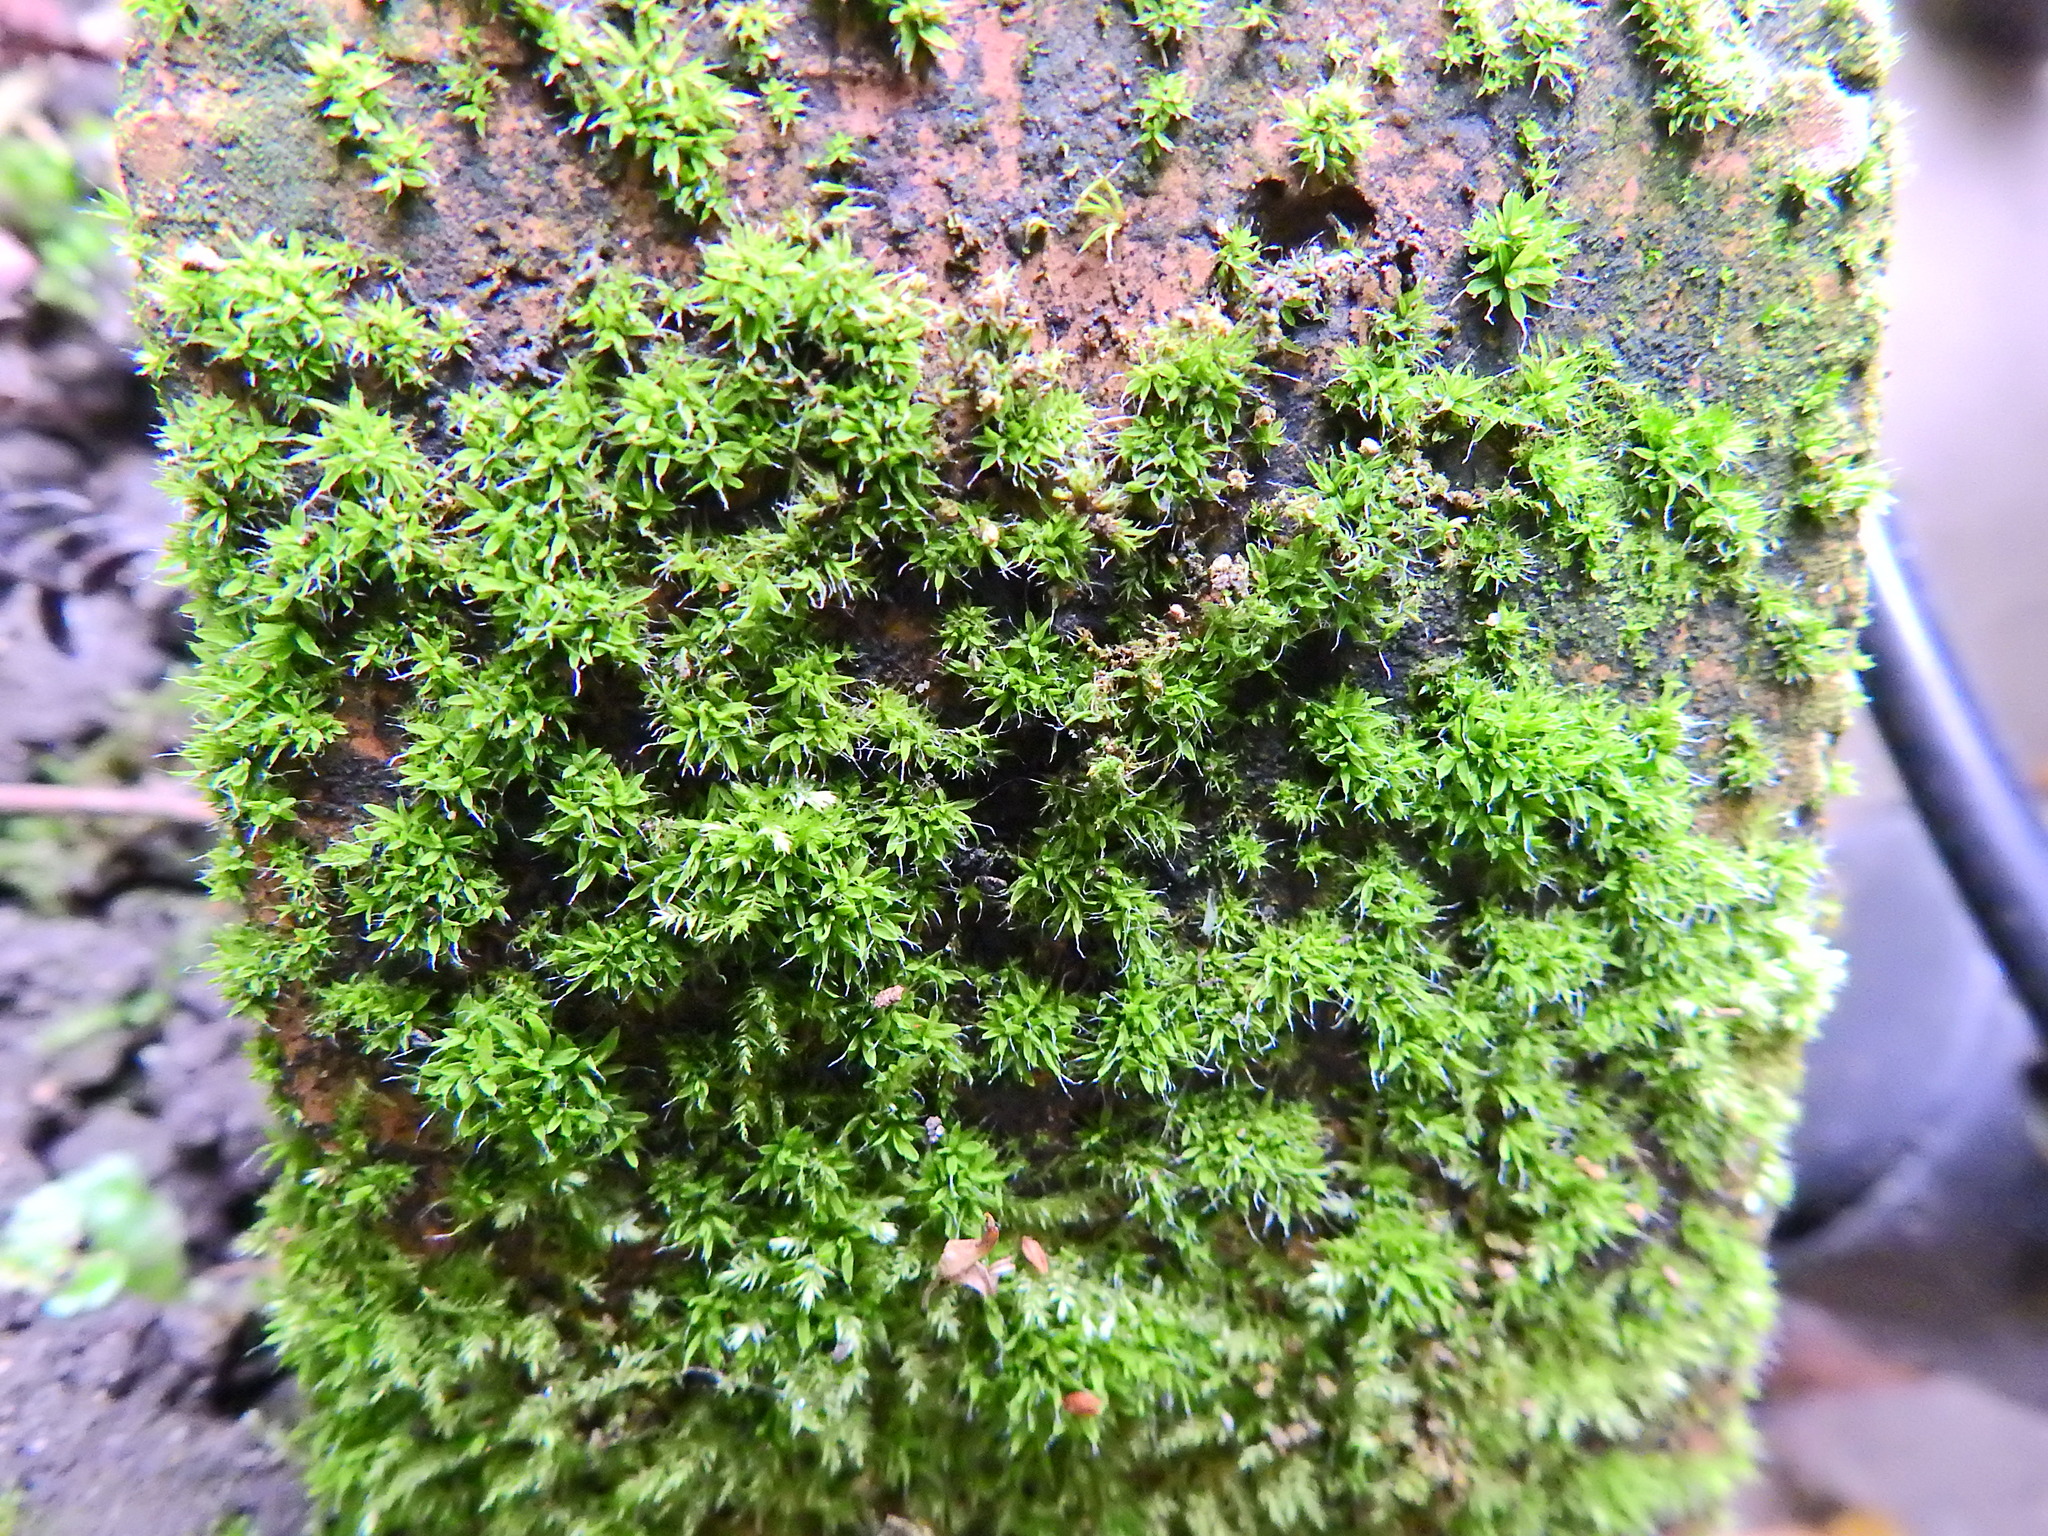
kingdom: Plantae
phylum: Bryophyta
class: Bryopsida
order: Pottiales
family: Pottiaceae
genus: Tortula
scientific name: Tortula muralis
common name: Wall screw-moss
